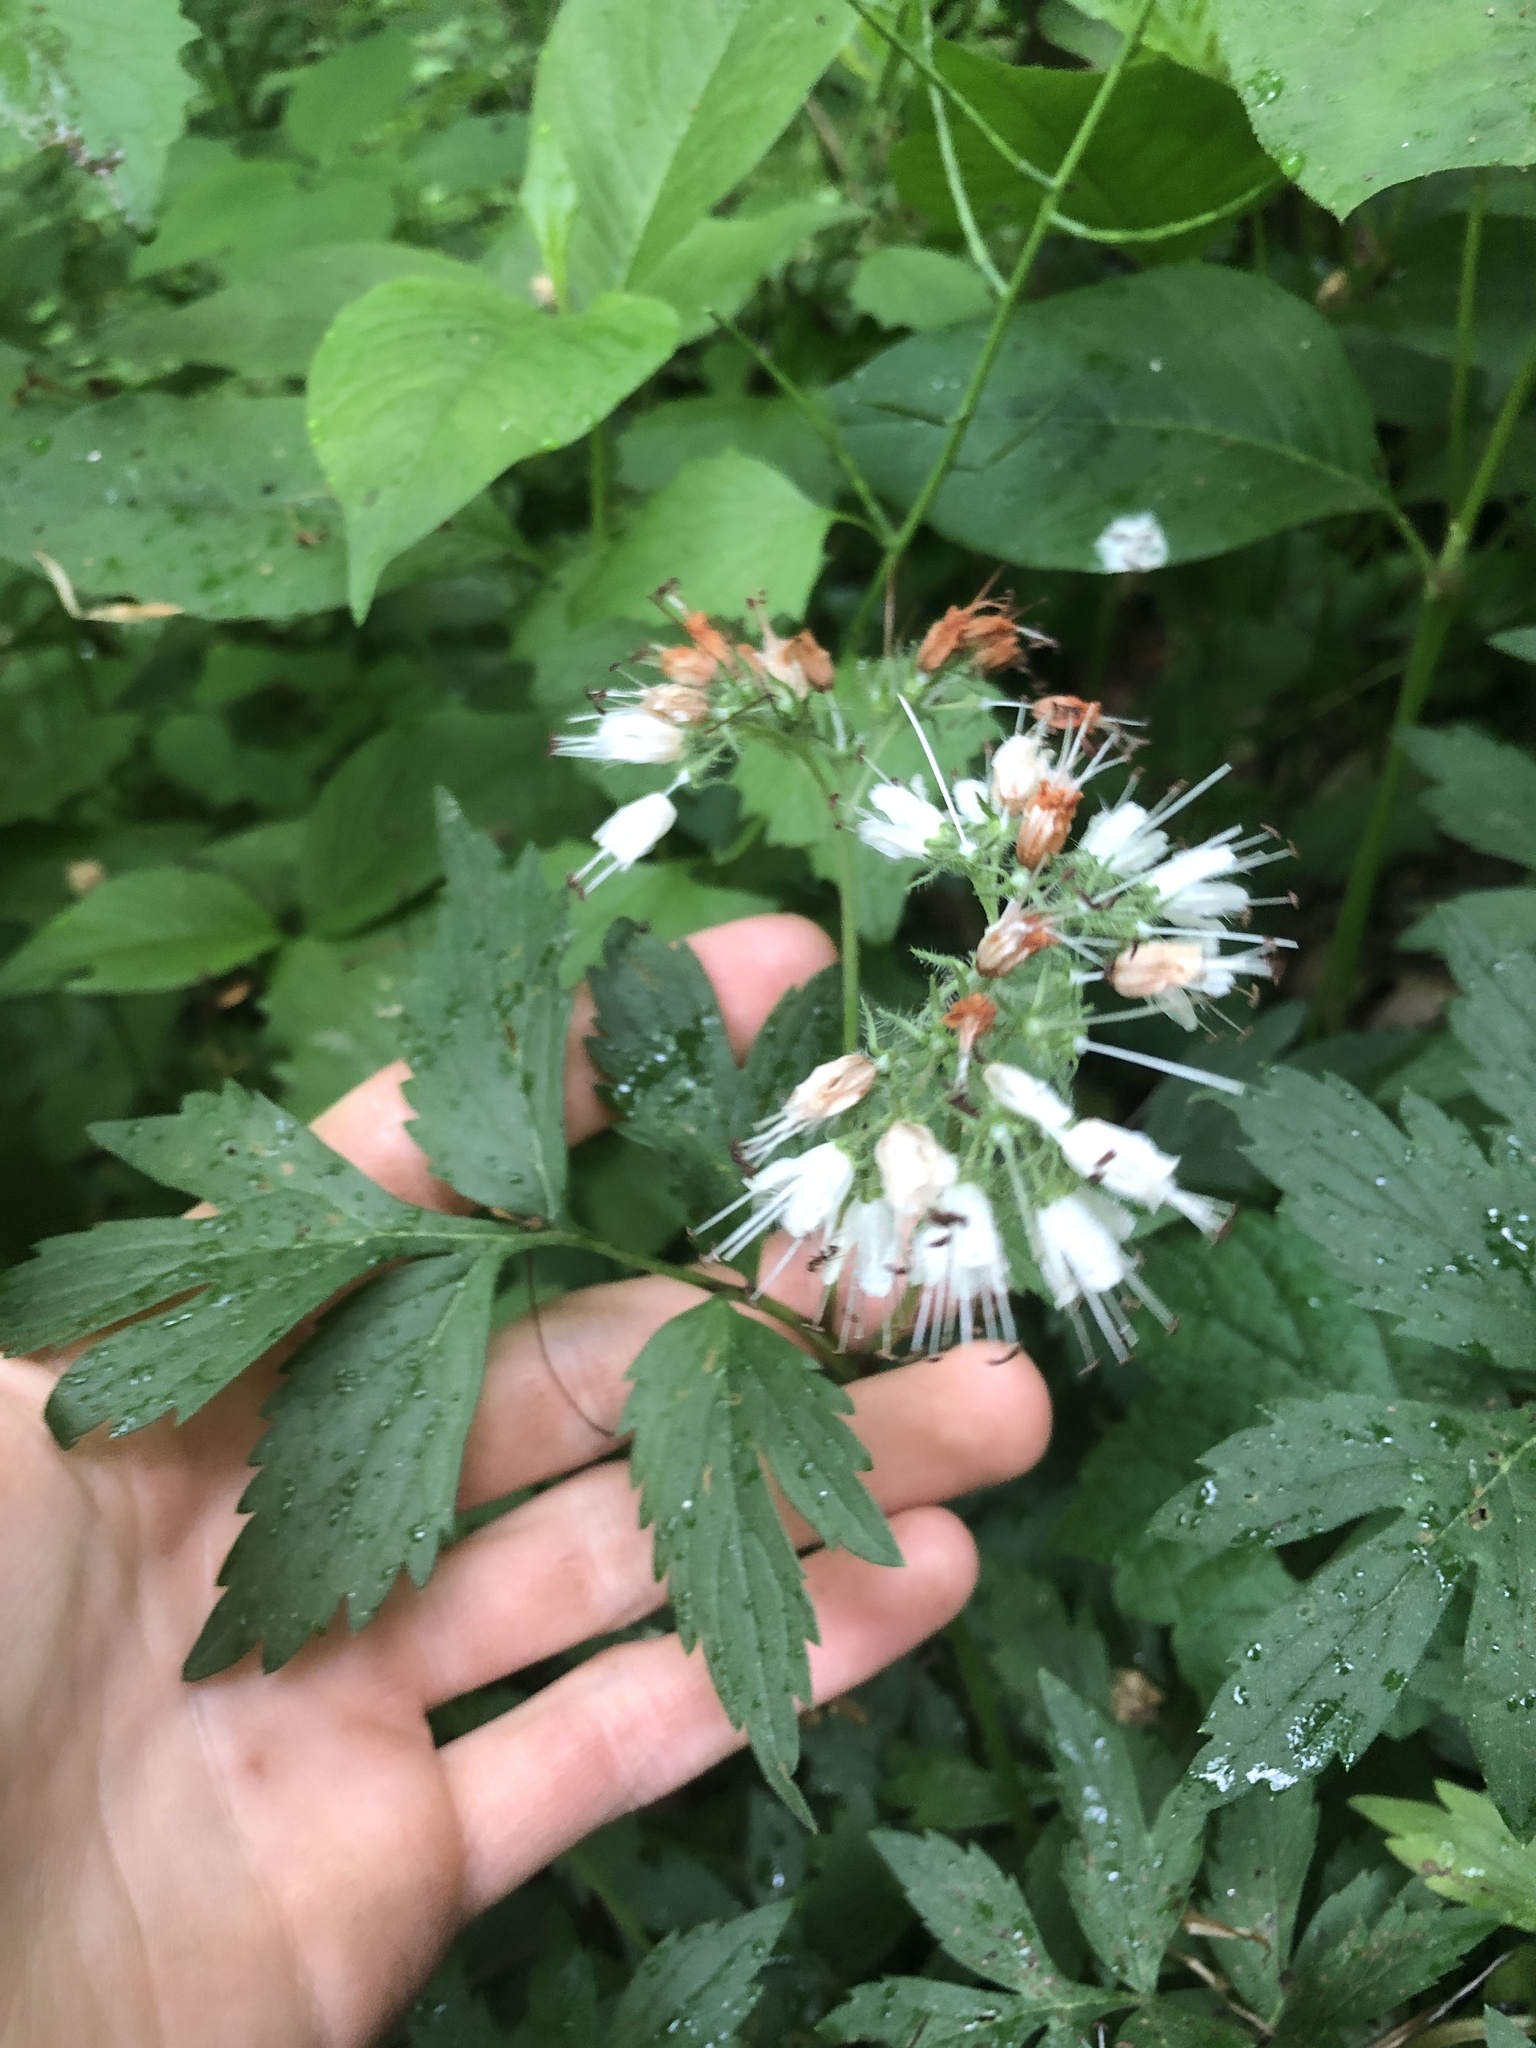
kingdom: Plantae
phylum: Tracheophyta
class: Magnoliopsida
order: Boraginales
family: Hydrophyllaceae
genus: Hydrophyllum
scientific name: Hydrophyllum virginianum
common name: Virginia waterleaf
